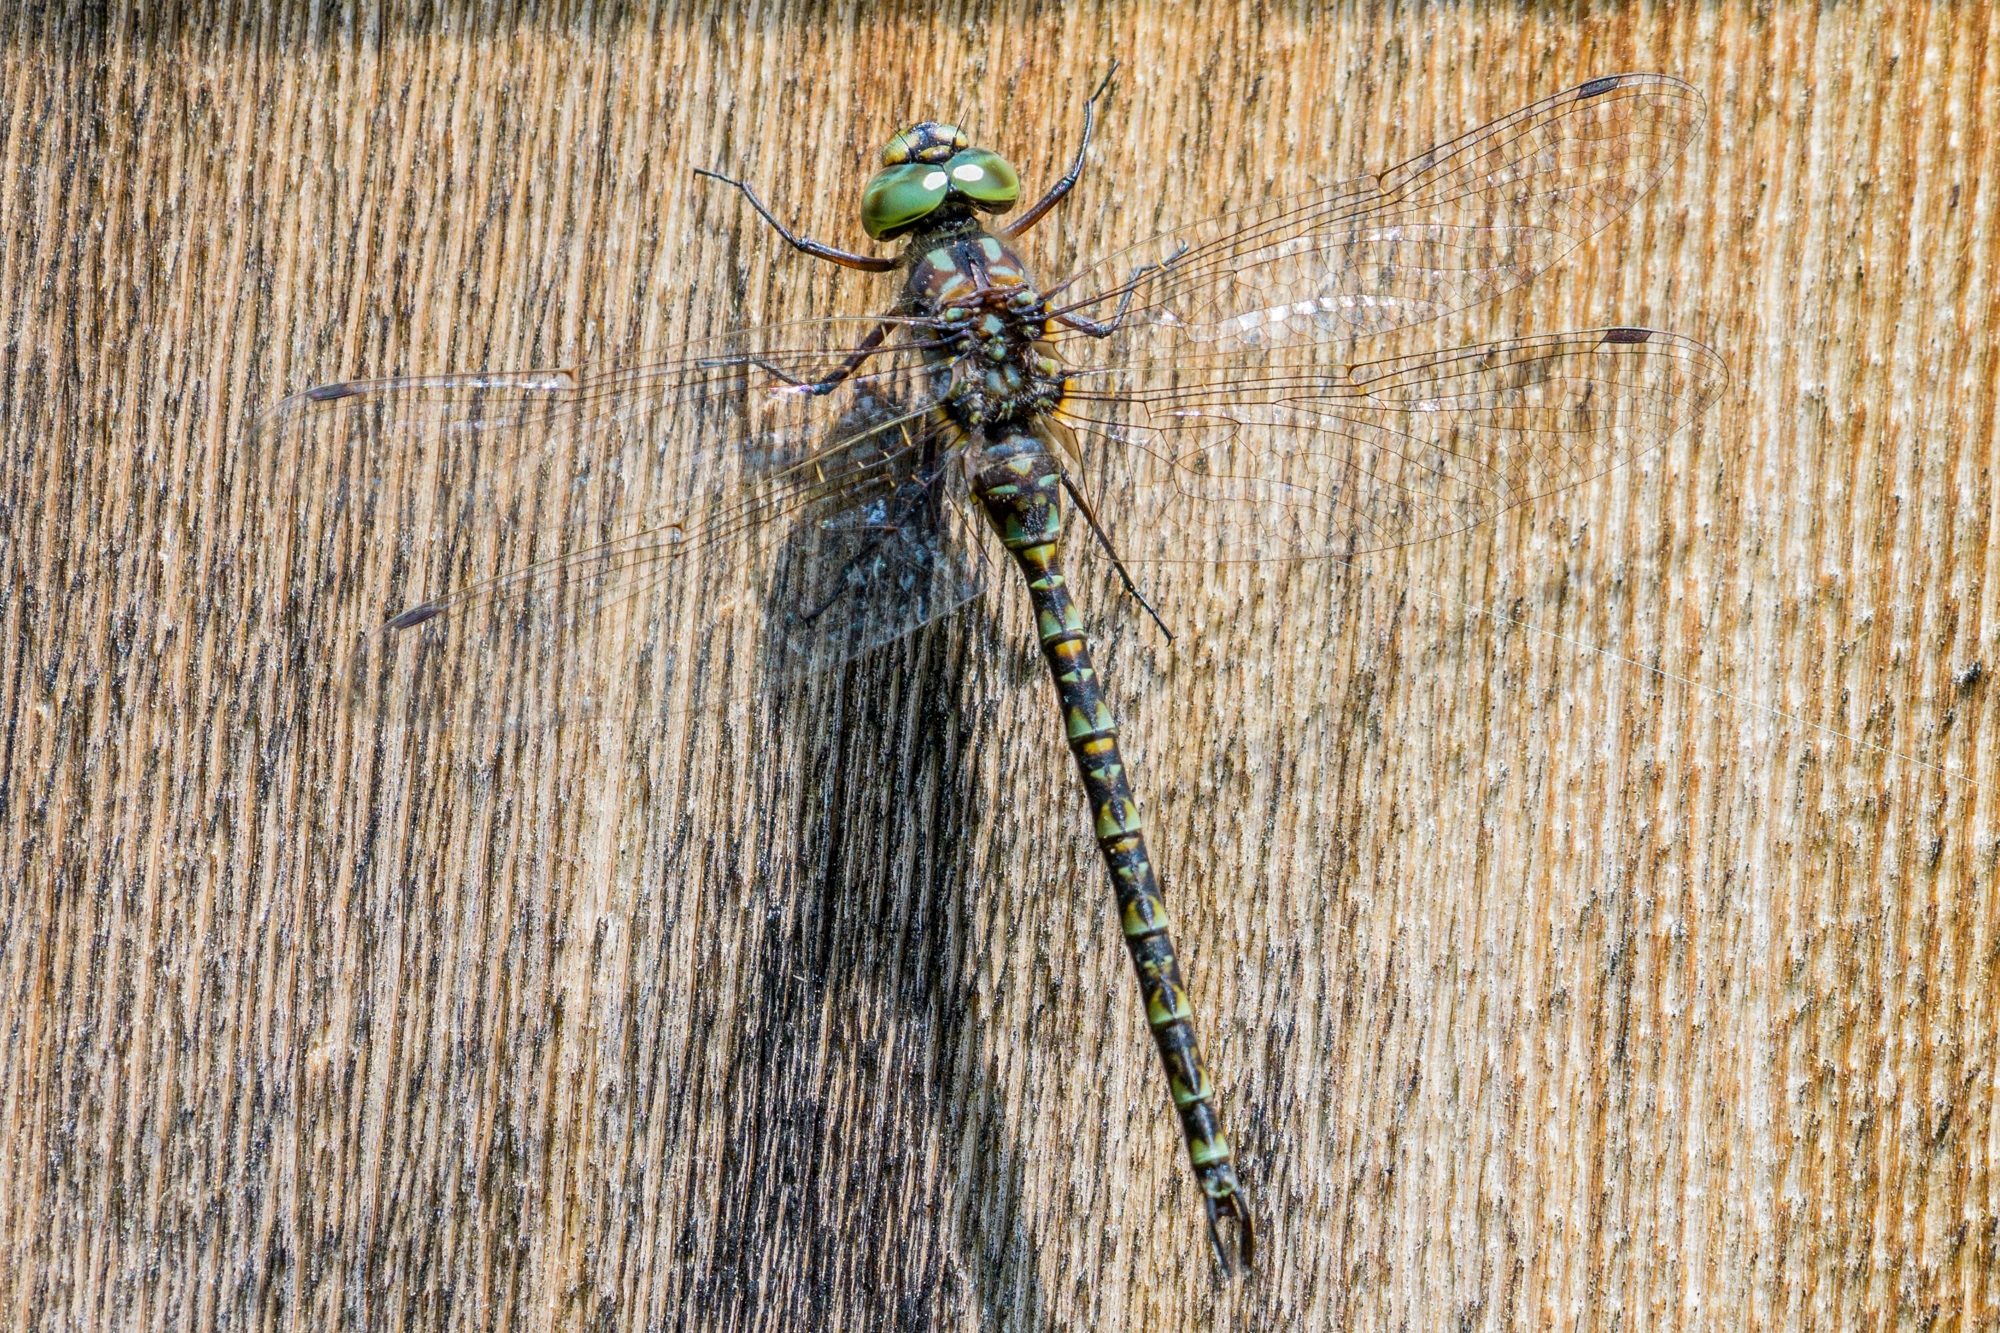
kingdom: Animalia
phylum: Arthropoda
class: Insecta
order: Odonata
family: Aeshnidae
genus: Gomphaeschna
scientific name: Gomphaeschna furcillata
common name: Harlequin darner
